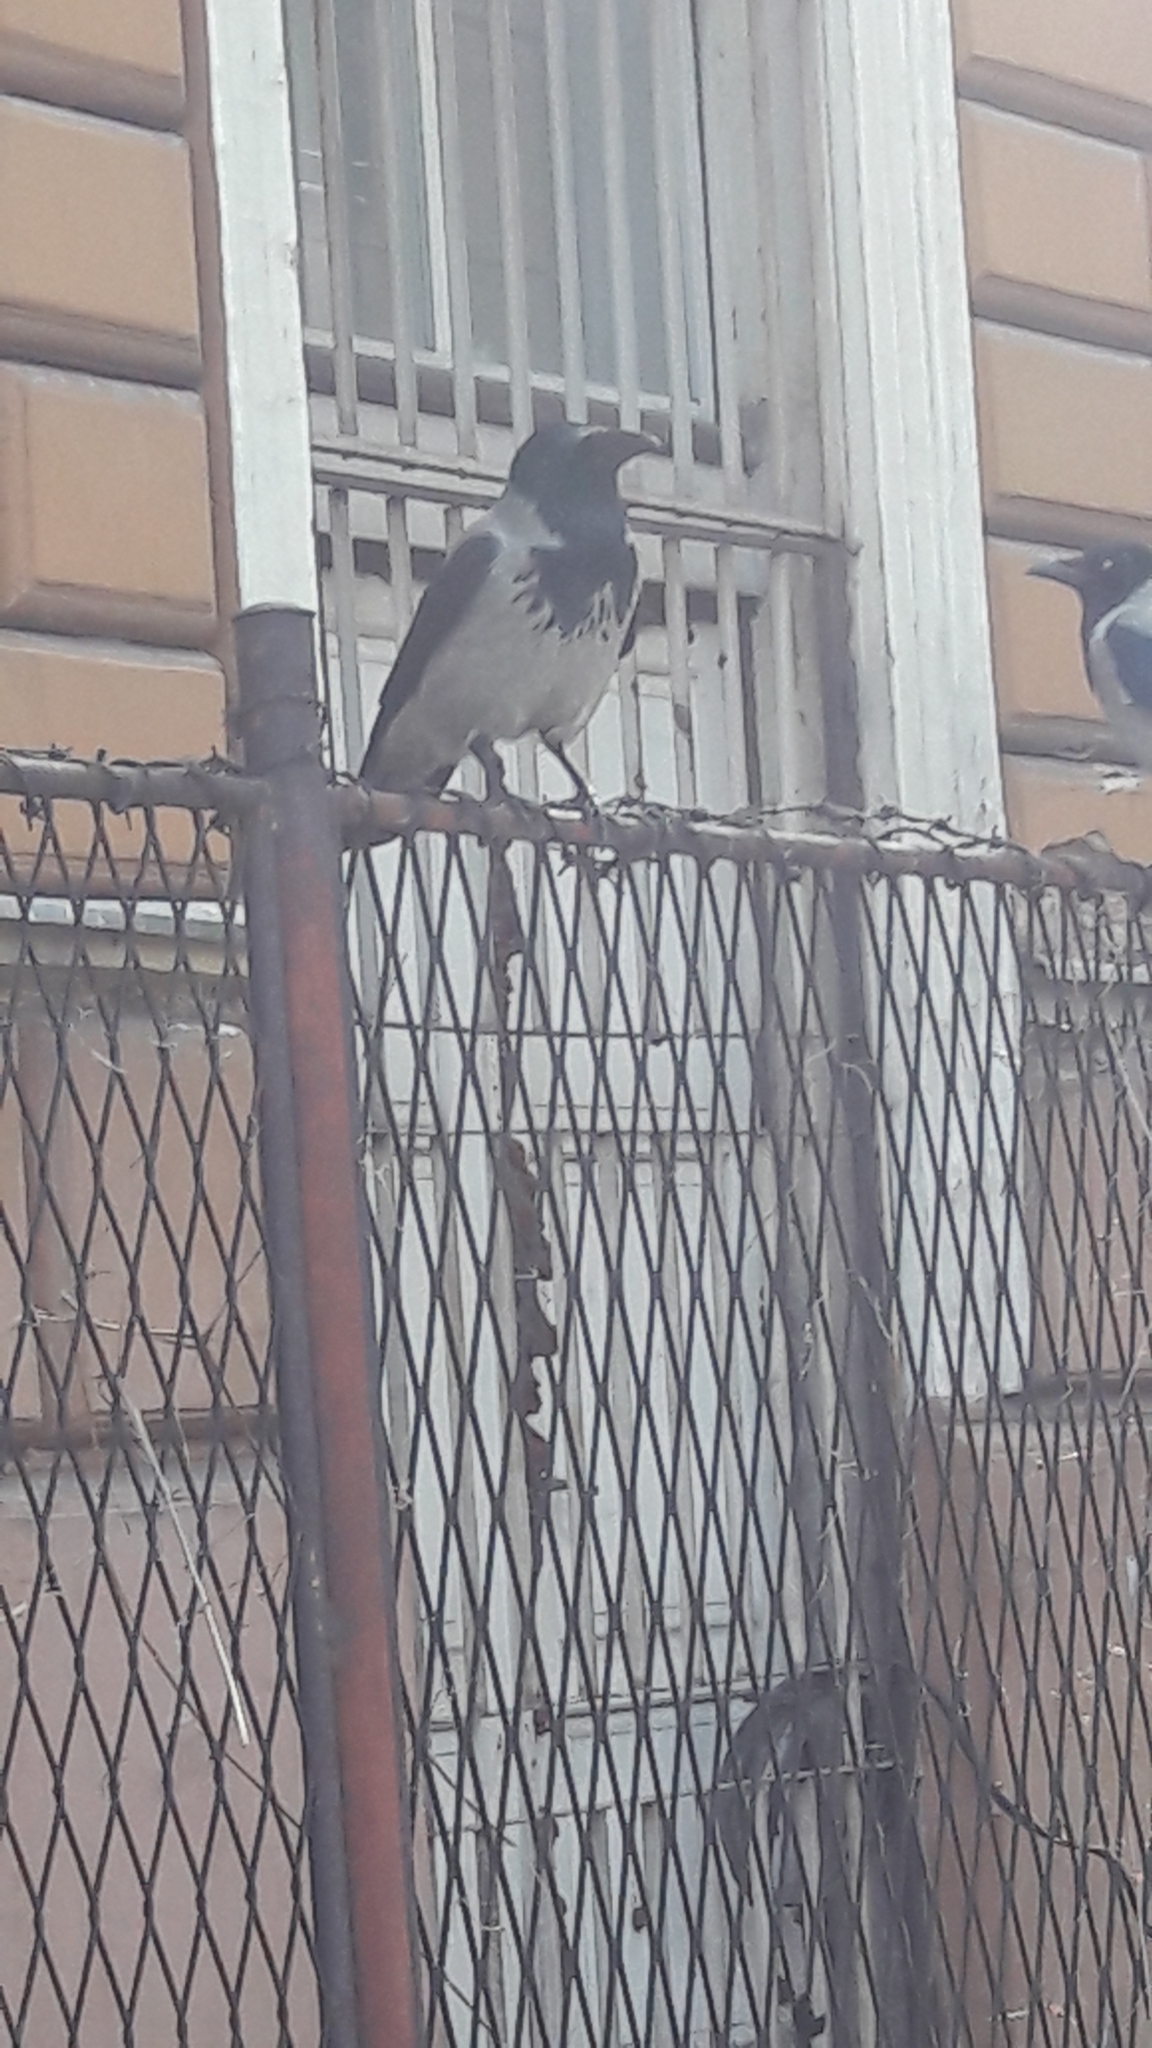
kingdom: Animalia
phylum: Chordata
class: Aves
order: Passeriformes
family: Corvidae
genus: Corvus
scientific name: Corvus cornix
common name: Hooded crow
